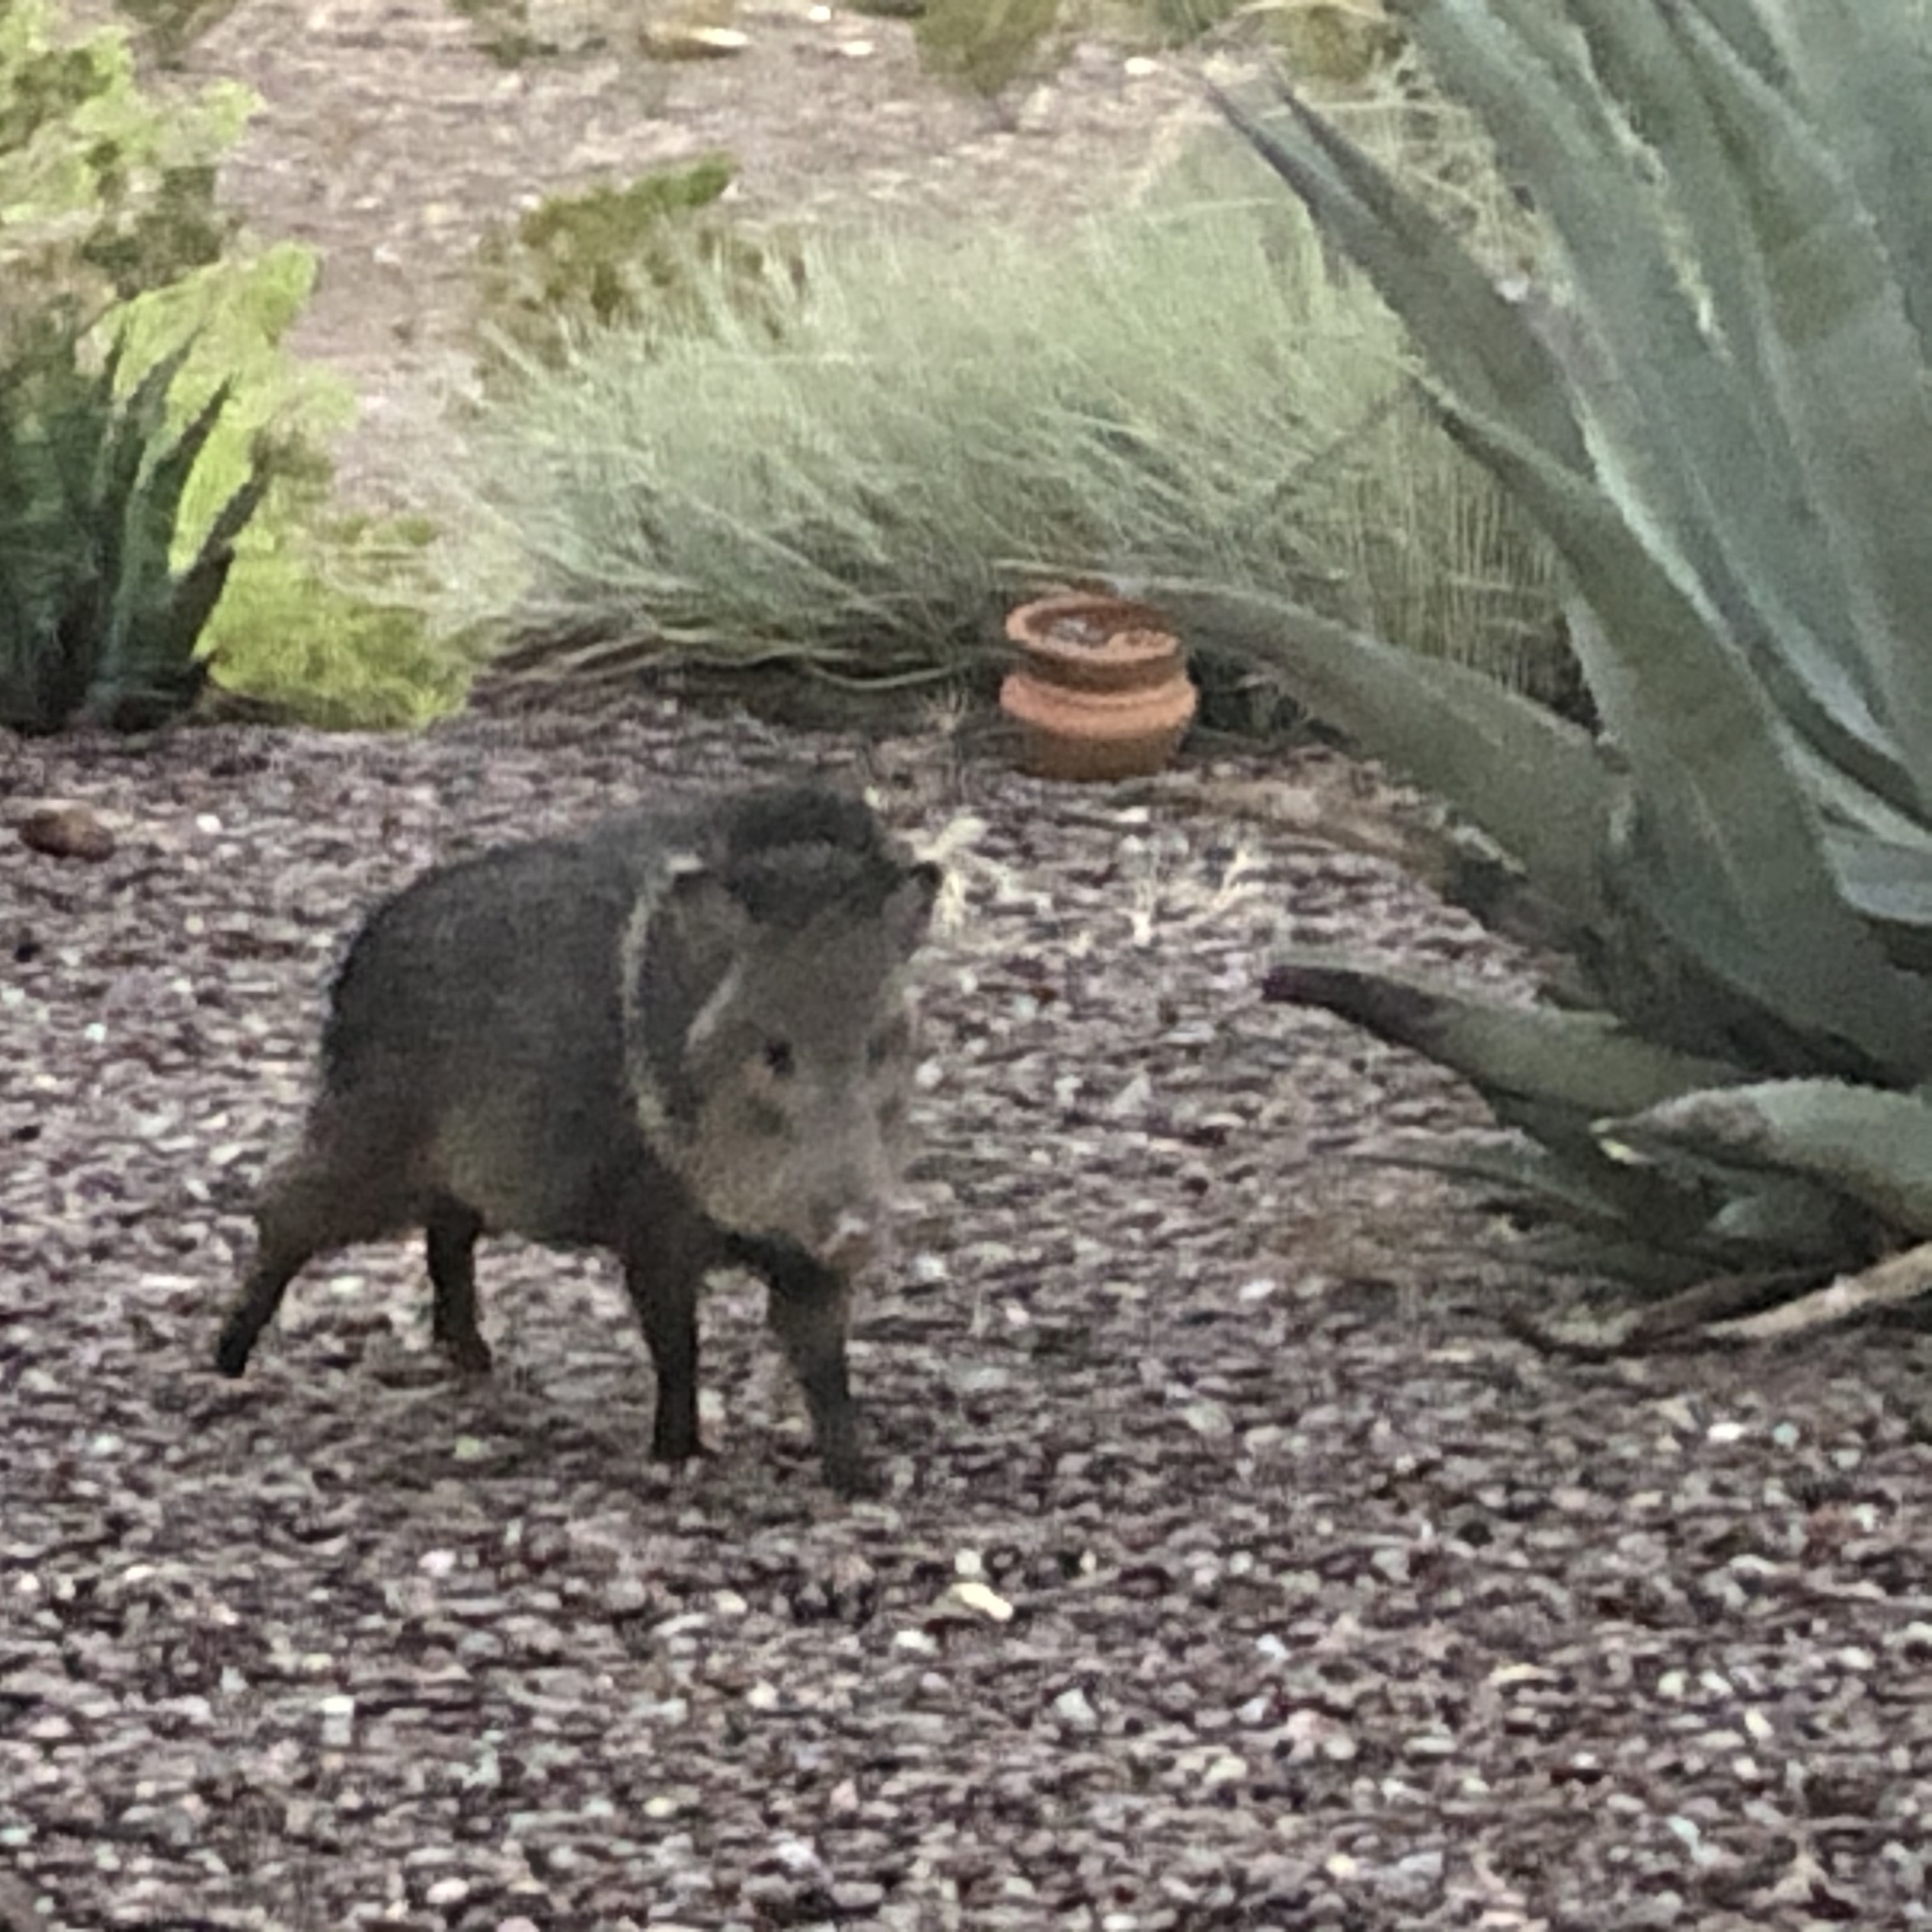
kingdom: Animalia
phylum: Chordata
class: Mammalia
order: Artiodactyla
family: Tayassuidae
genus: Pecari
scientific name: Pecari tajacu
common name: Collared peccary
